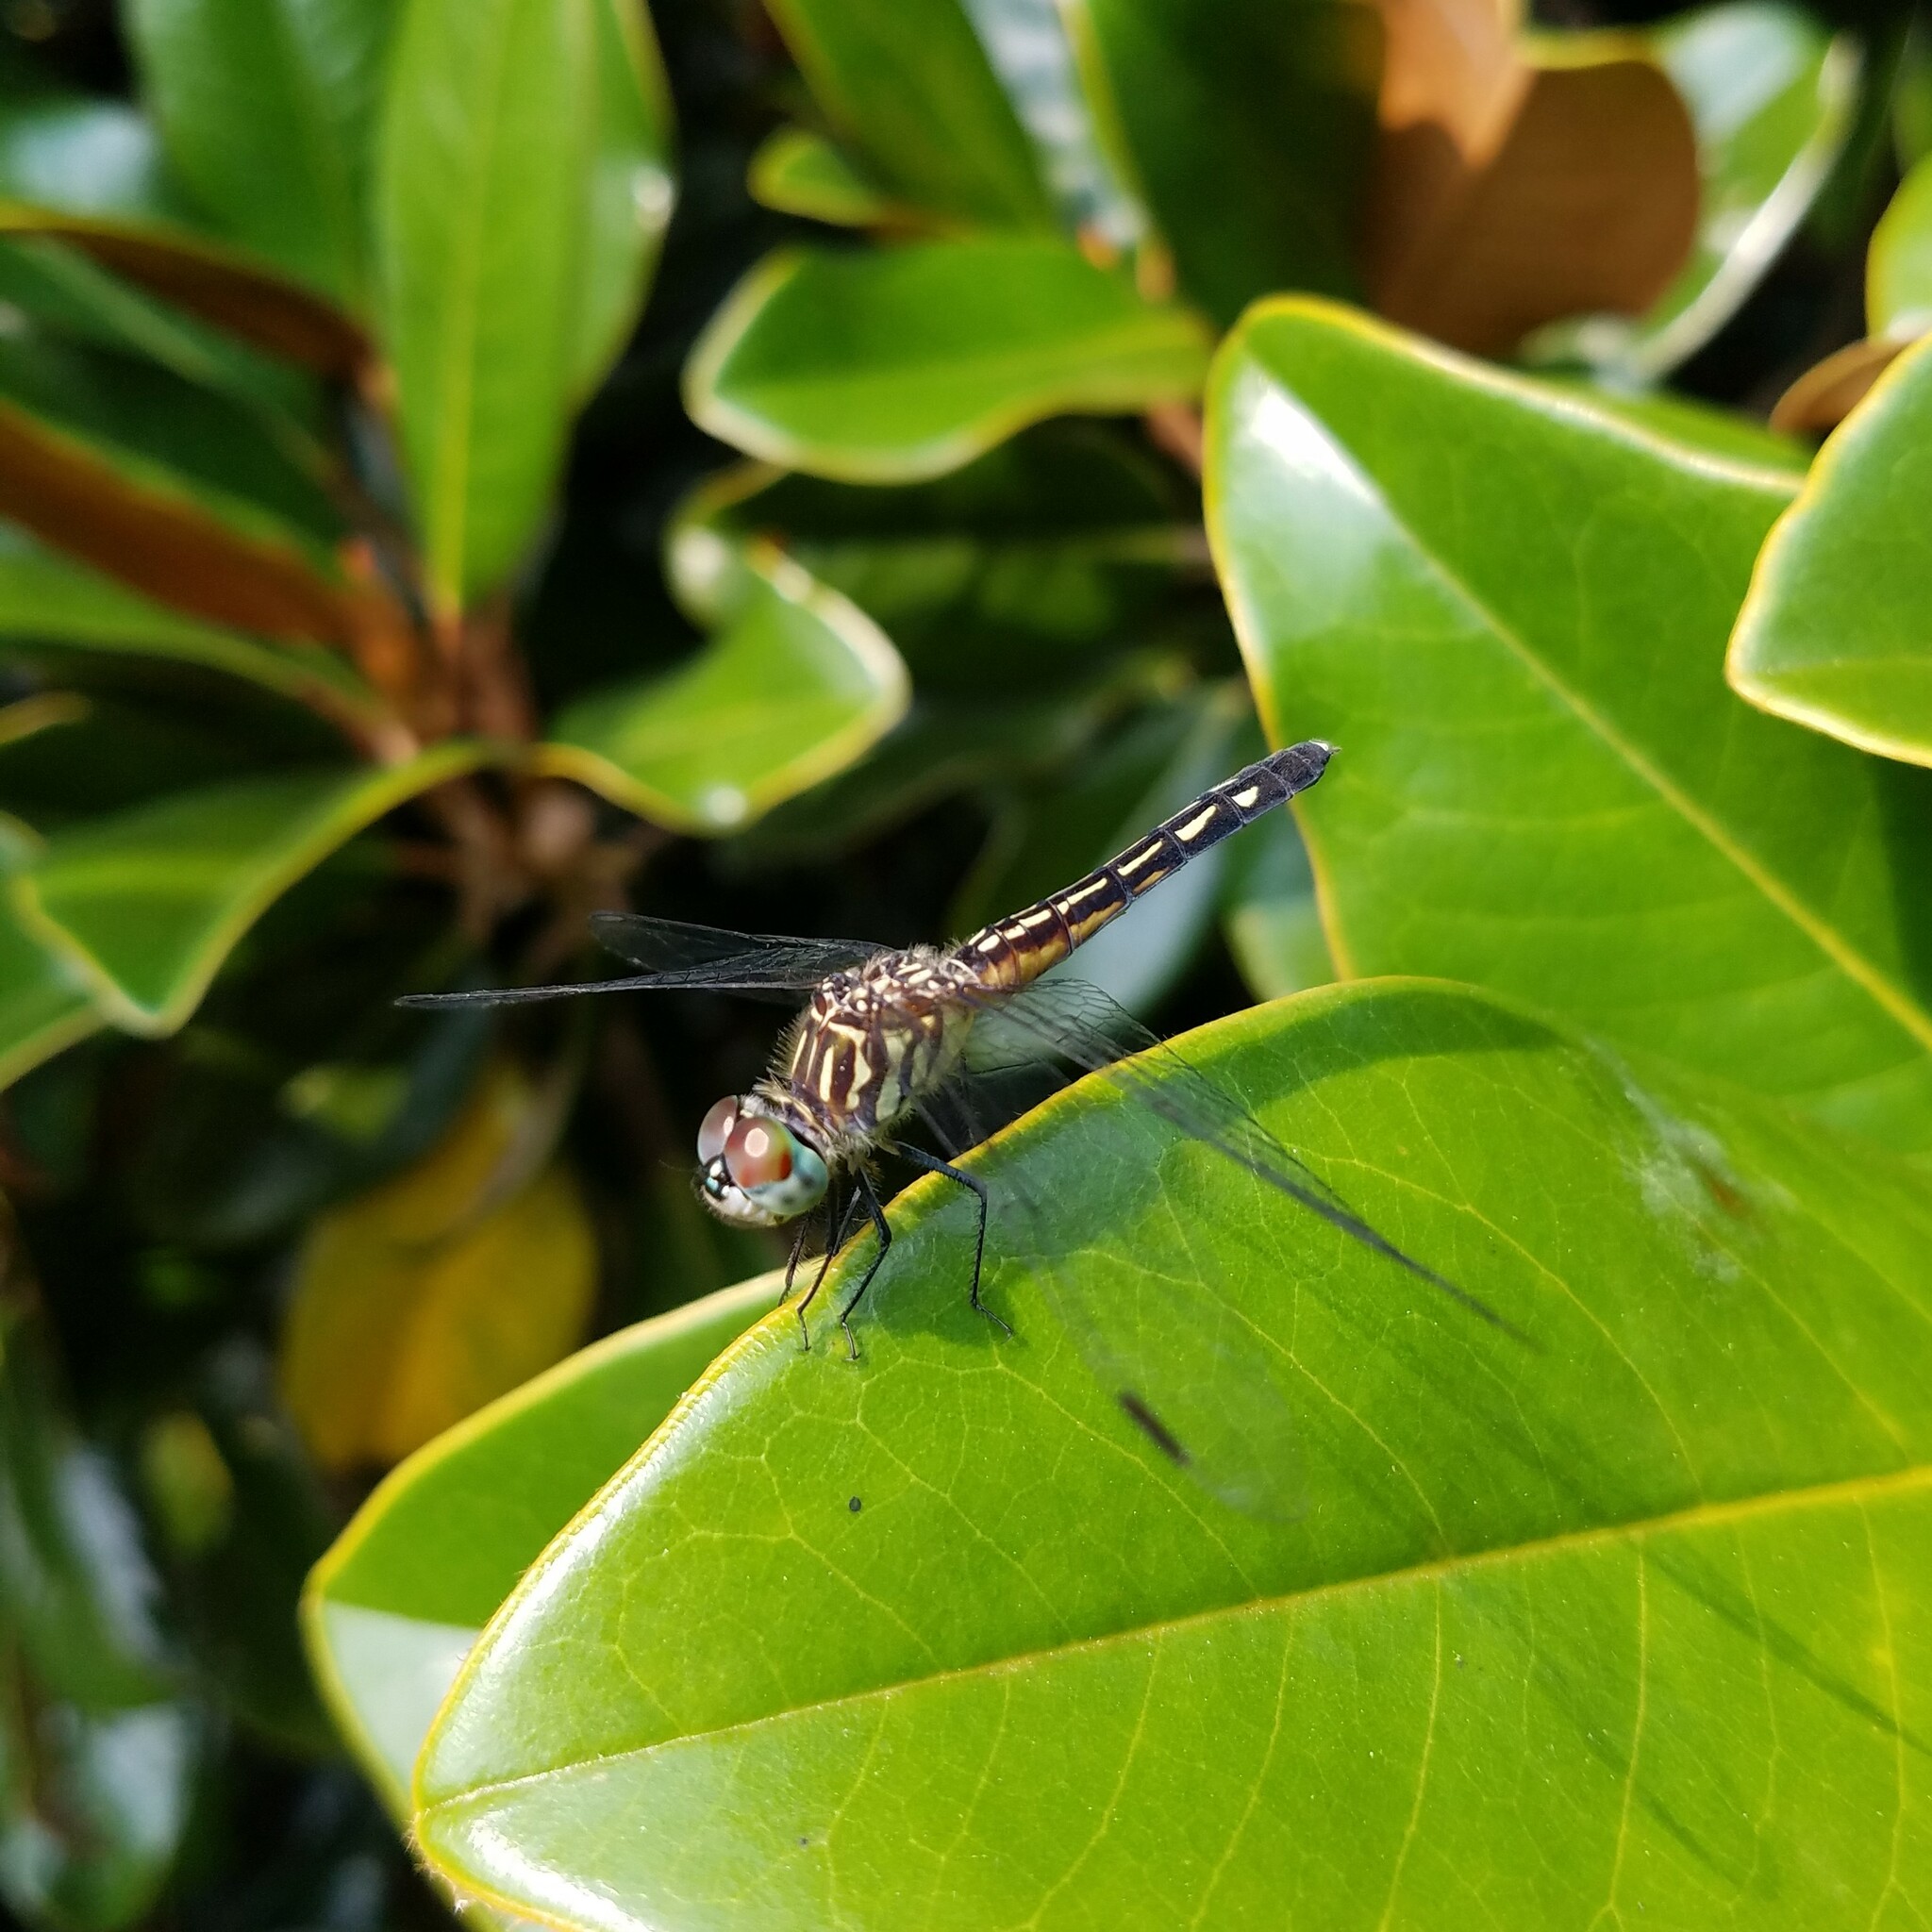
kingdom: Animalia
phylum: Arthropoda
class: Insecta
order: Odonata
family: Libellulidae
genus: Pachydiplax
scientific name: Pachydiplax longipennis
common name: Blue dasher
